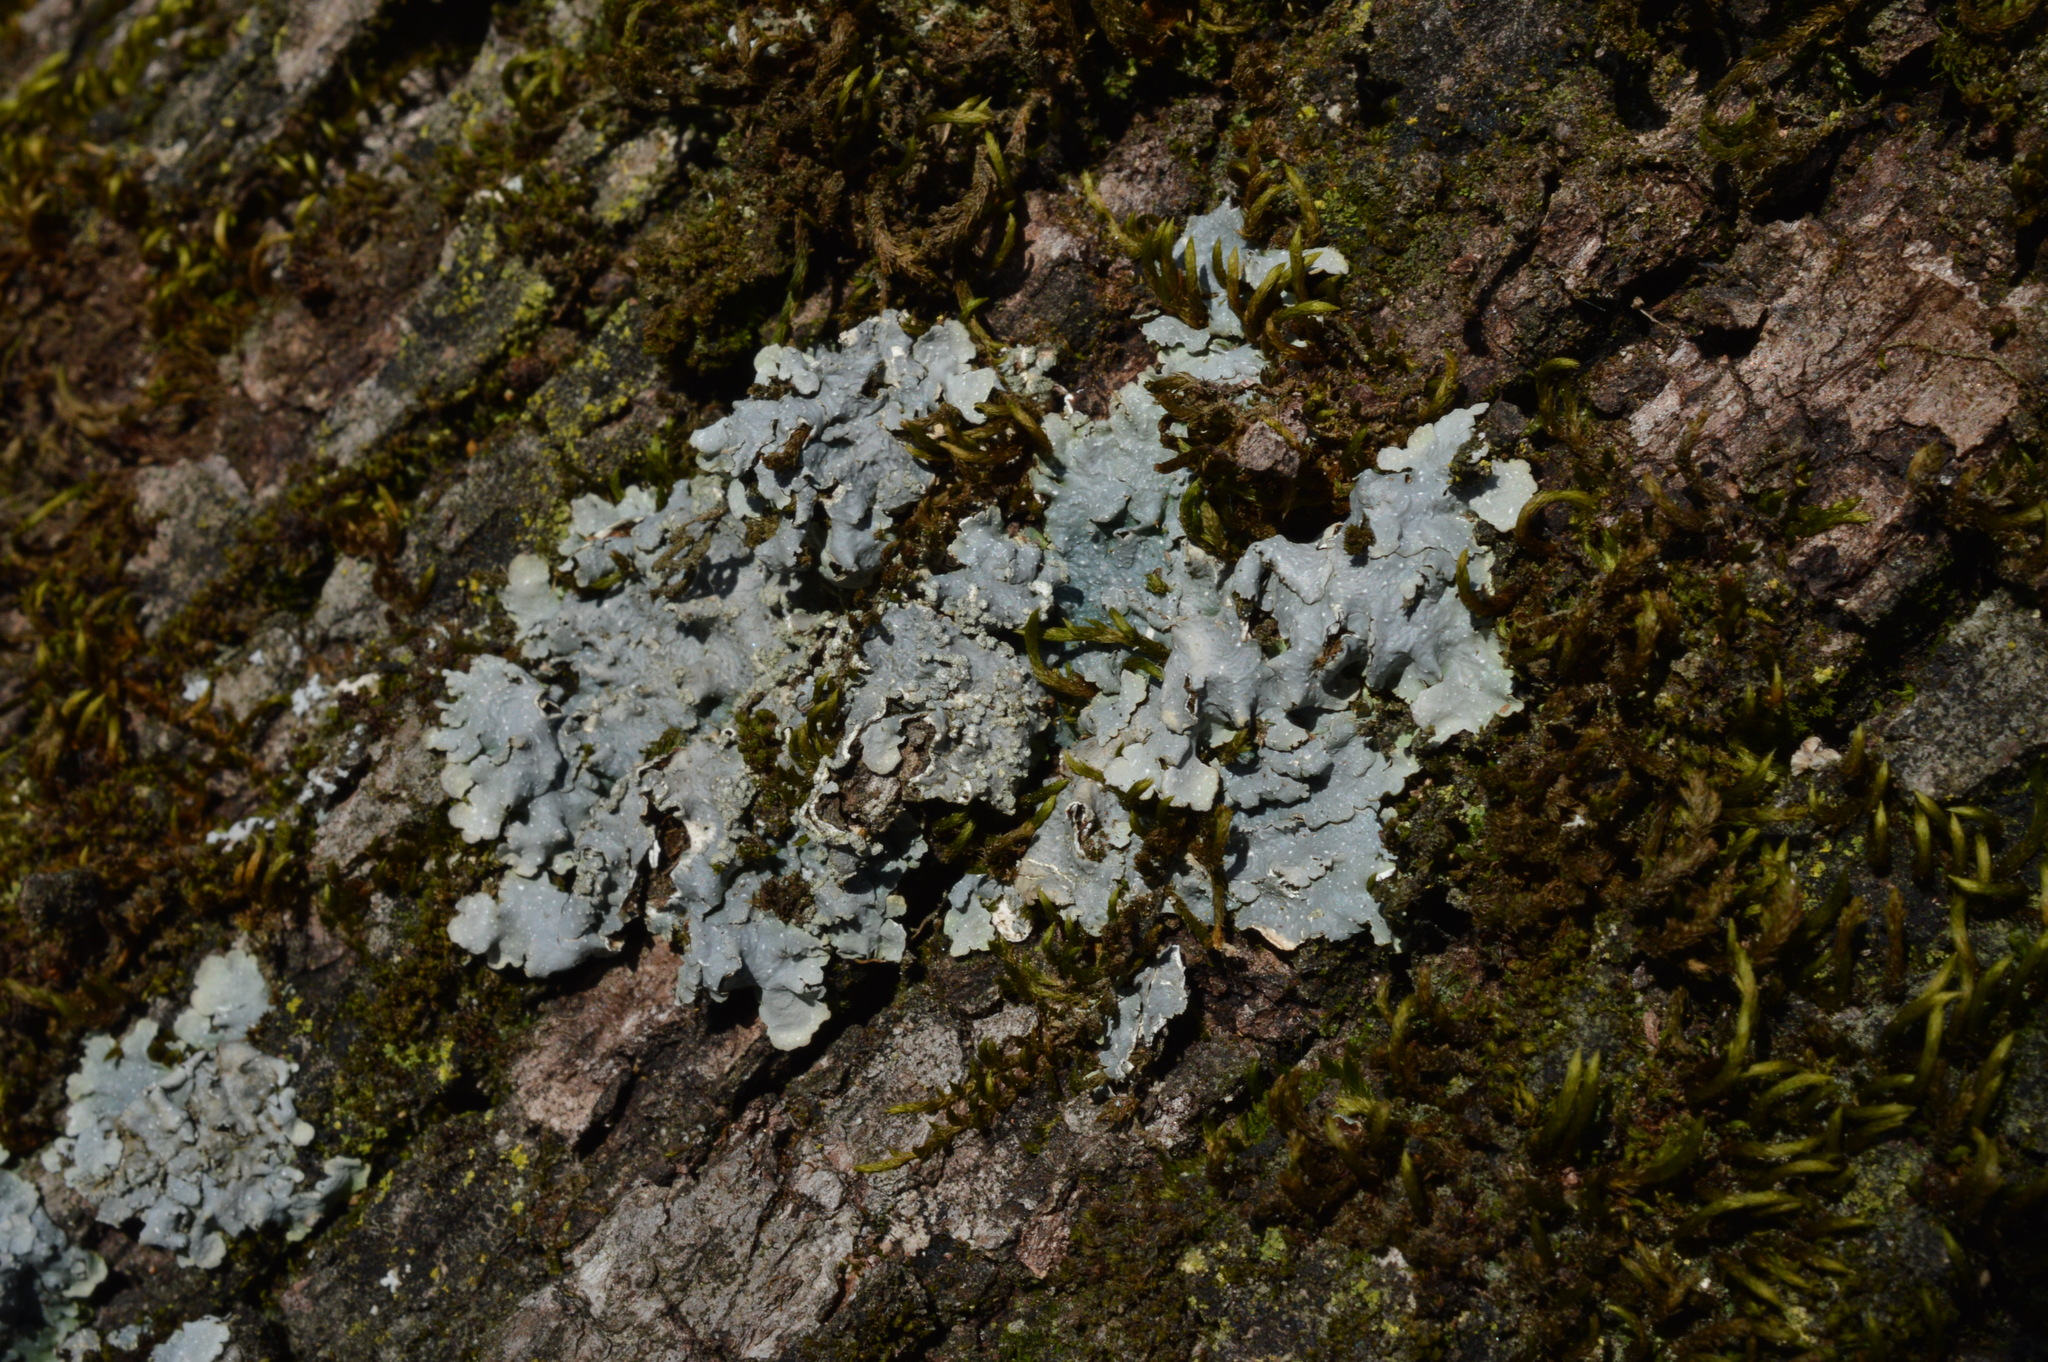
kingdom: Fungi
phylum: Ascomycota
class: Lecanoromycetes
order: Lecanorales
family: Parmeliaceae
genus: Punctelia
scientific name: Punctelia
